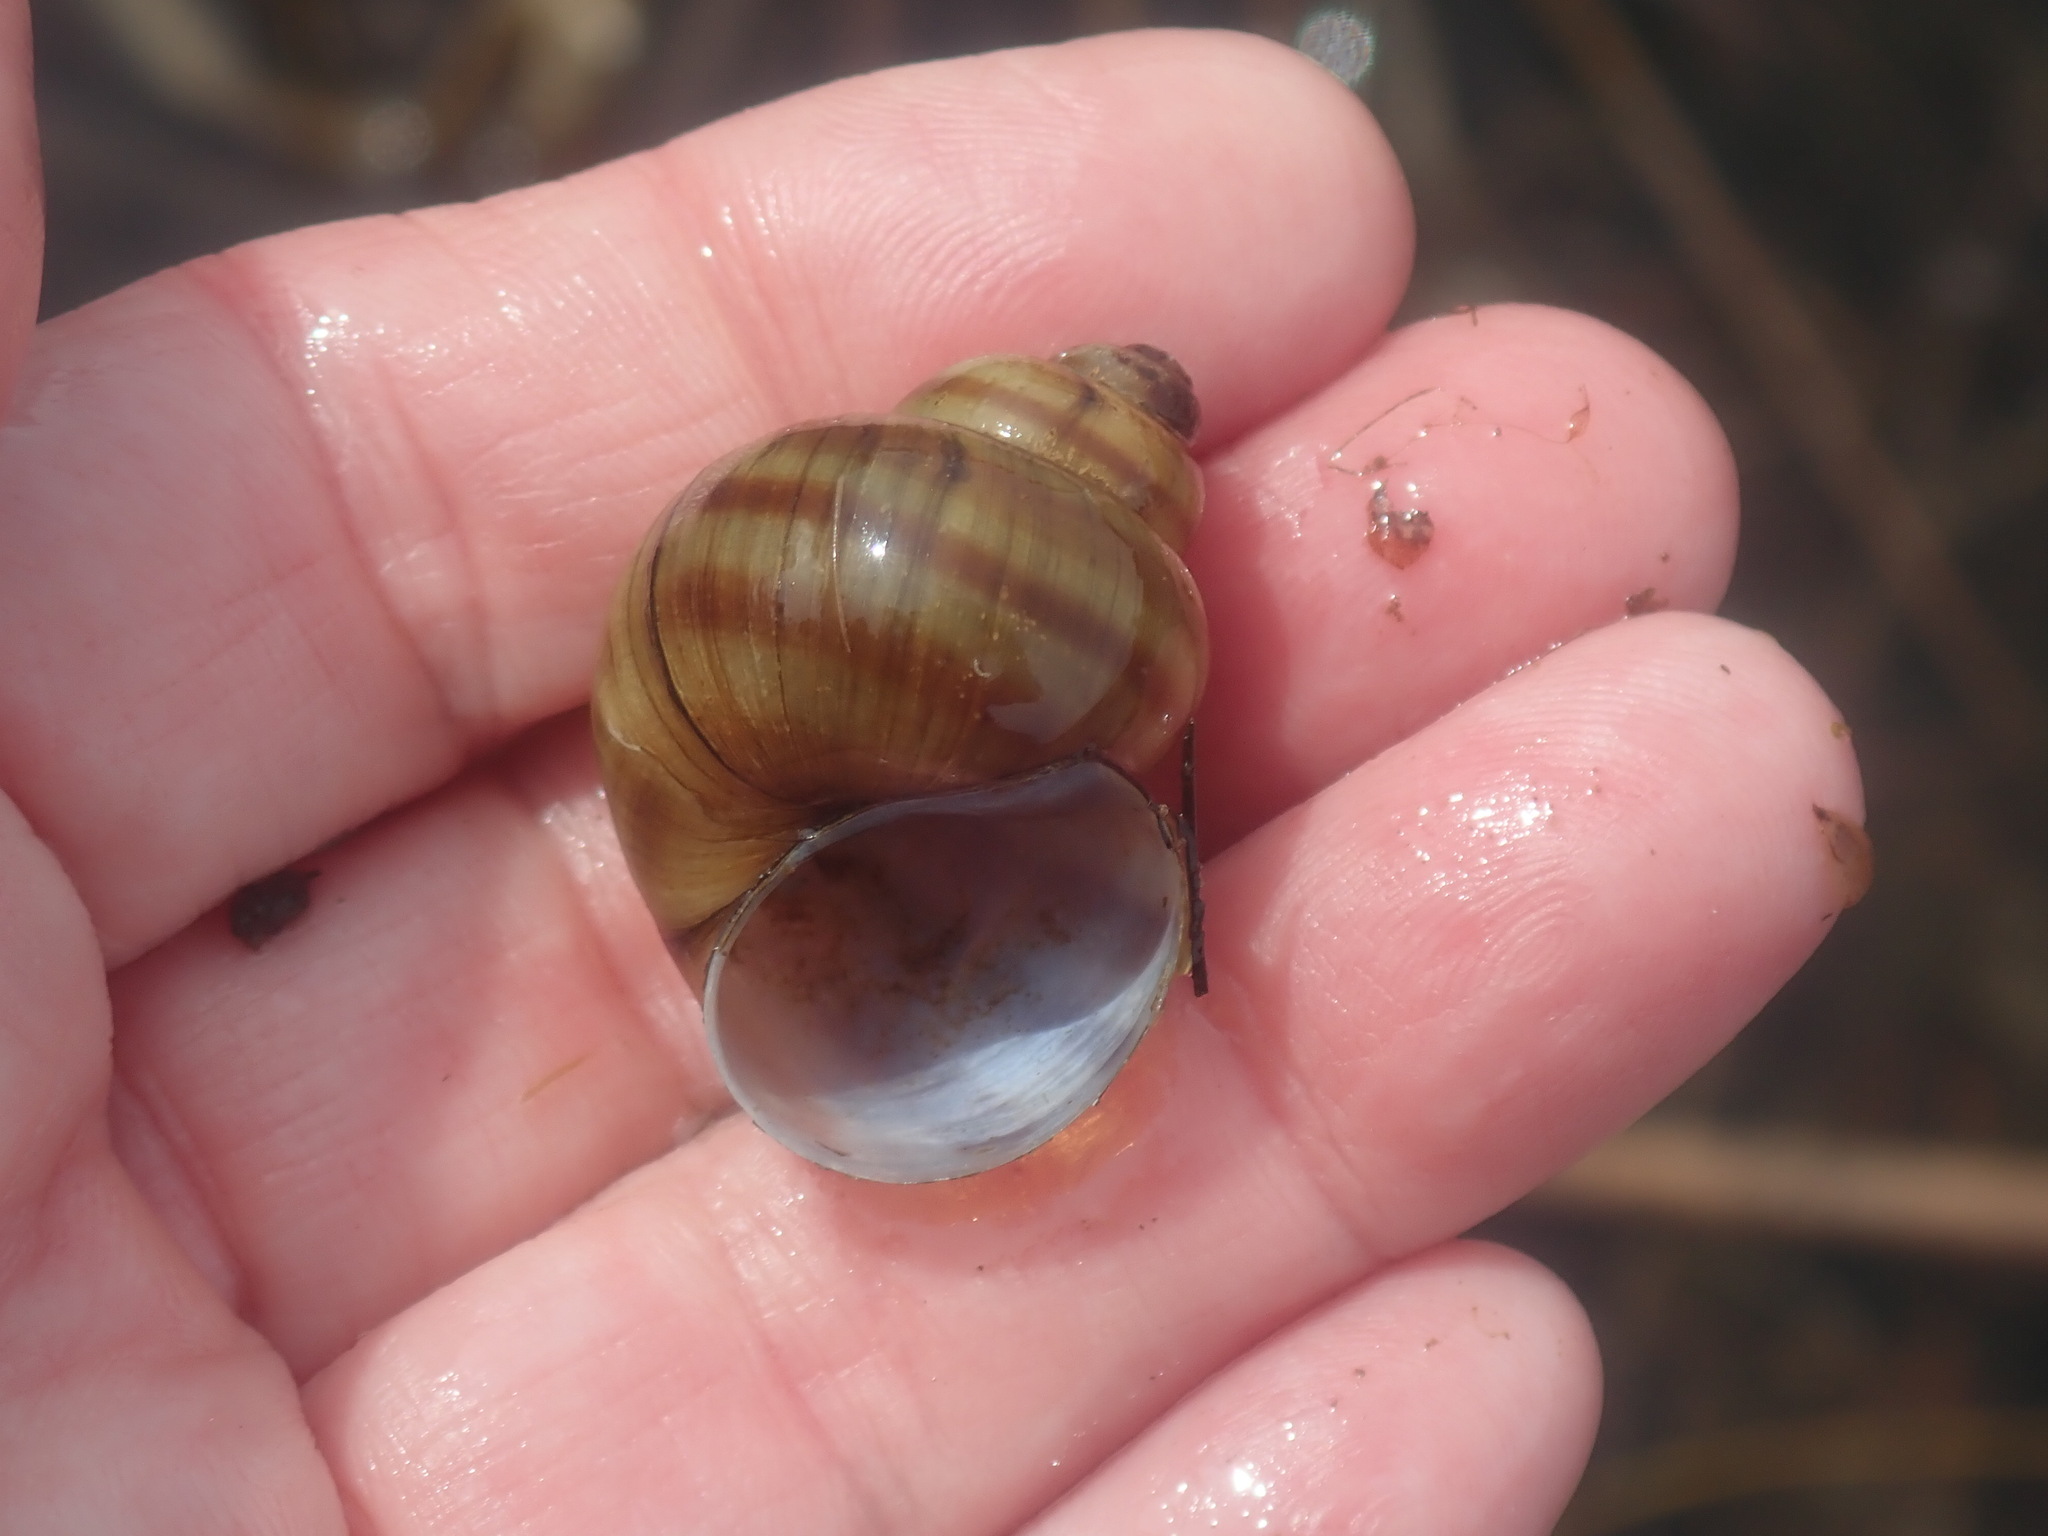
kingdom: Animalia
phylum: Mollusca
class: Gastropoda
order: Architaenioglossa
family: Viviparidae
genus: Callinina
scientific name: Callinina georgiana
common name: Banded mystery snail
